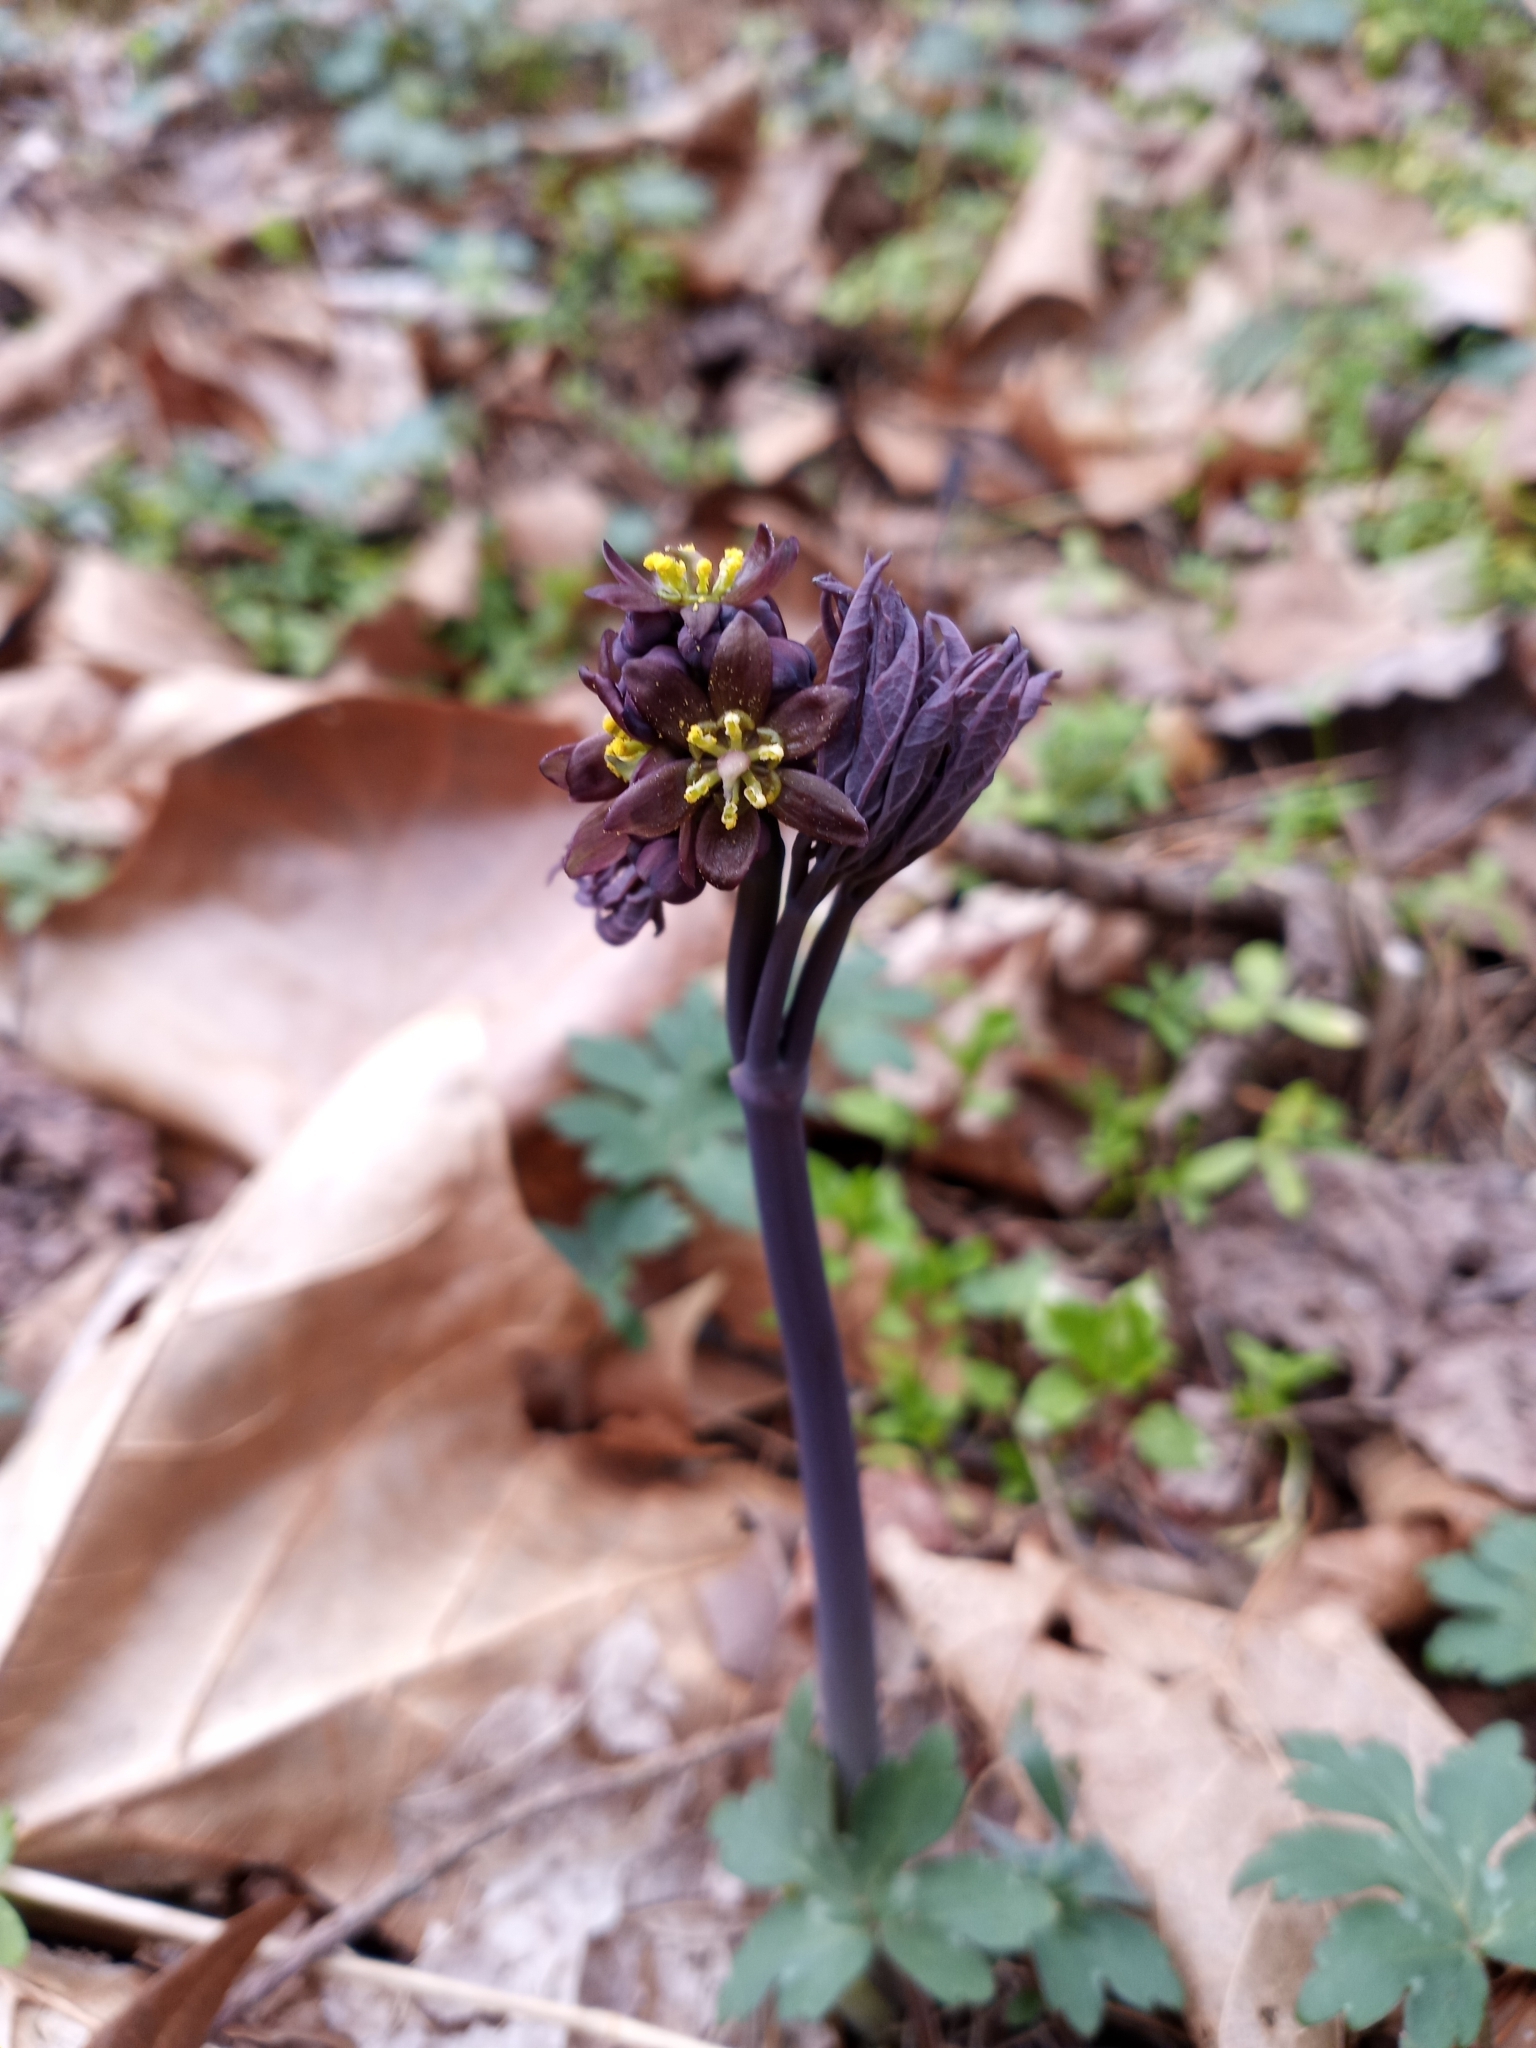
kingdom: Plantae
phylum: Tracheophyta
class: Magnoliopsida
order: Ranunculales
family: Berberidaceae
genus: Caulophyllum
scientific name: Caulophyllum giganteum
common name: Blue cohosh
